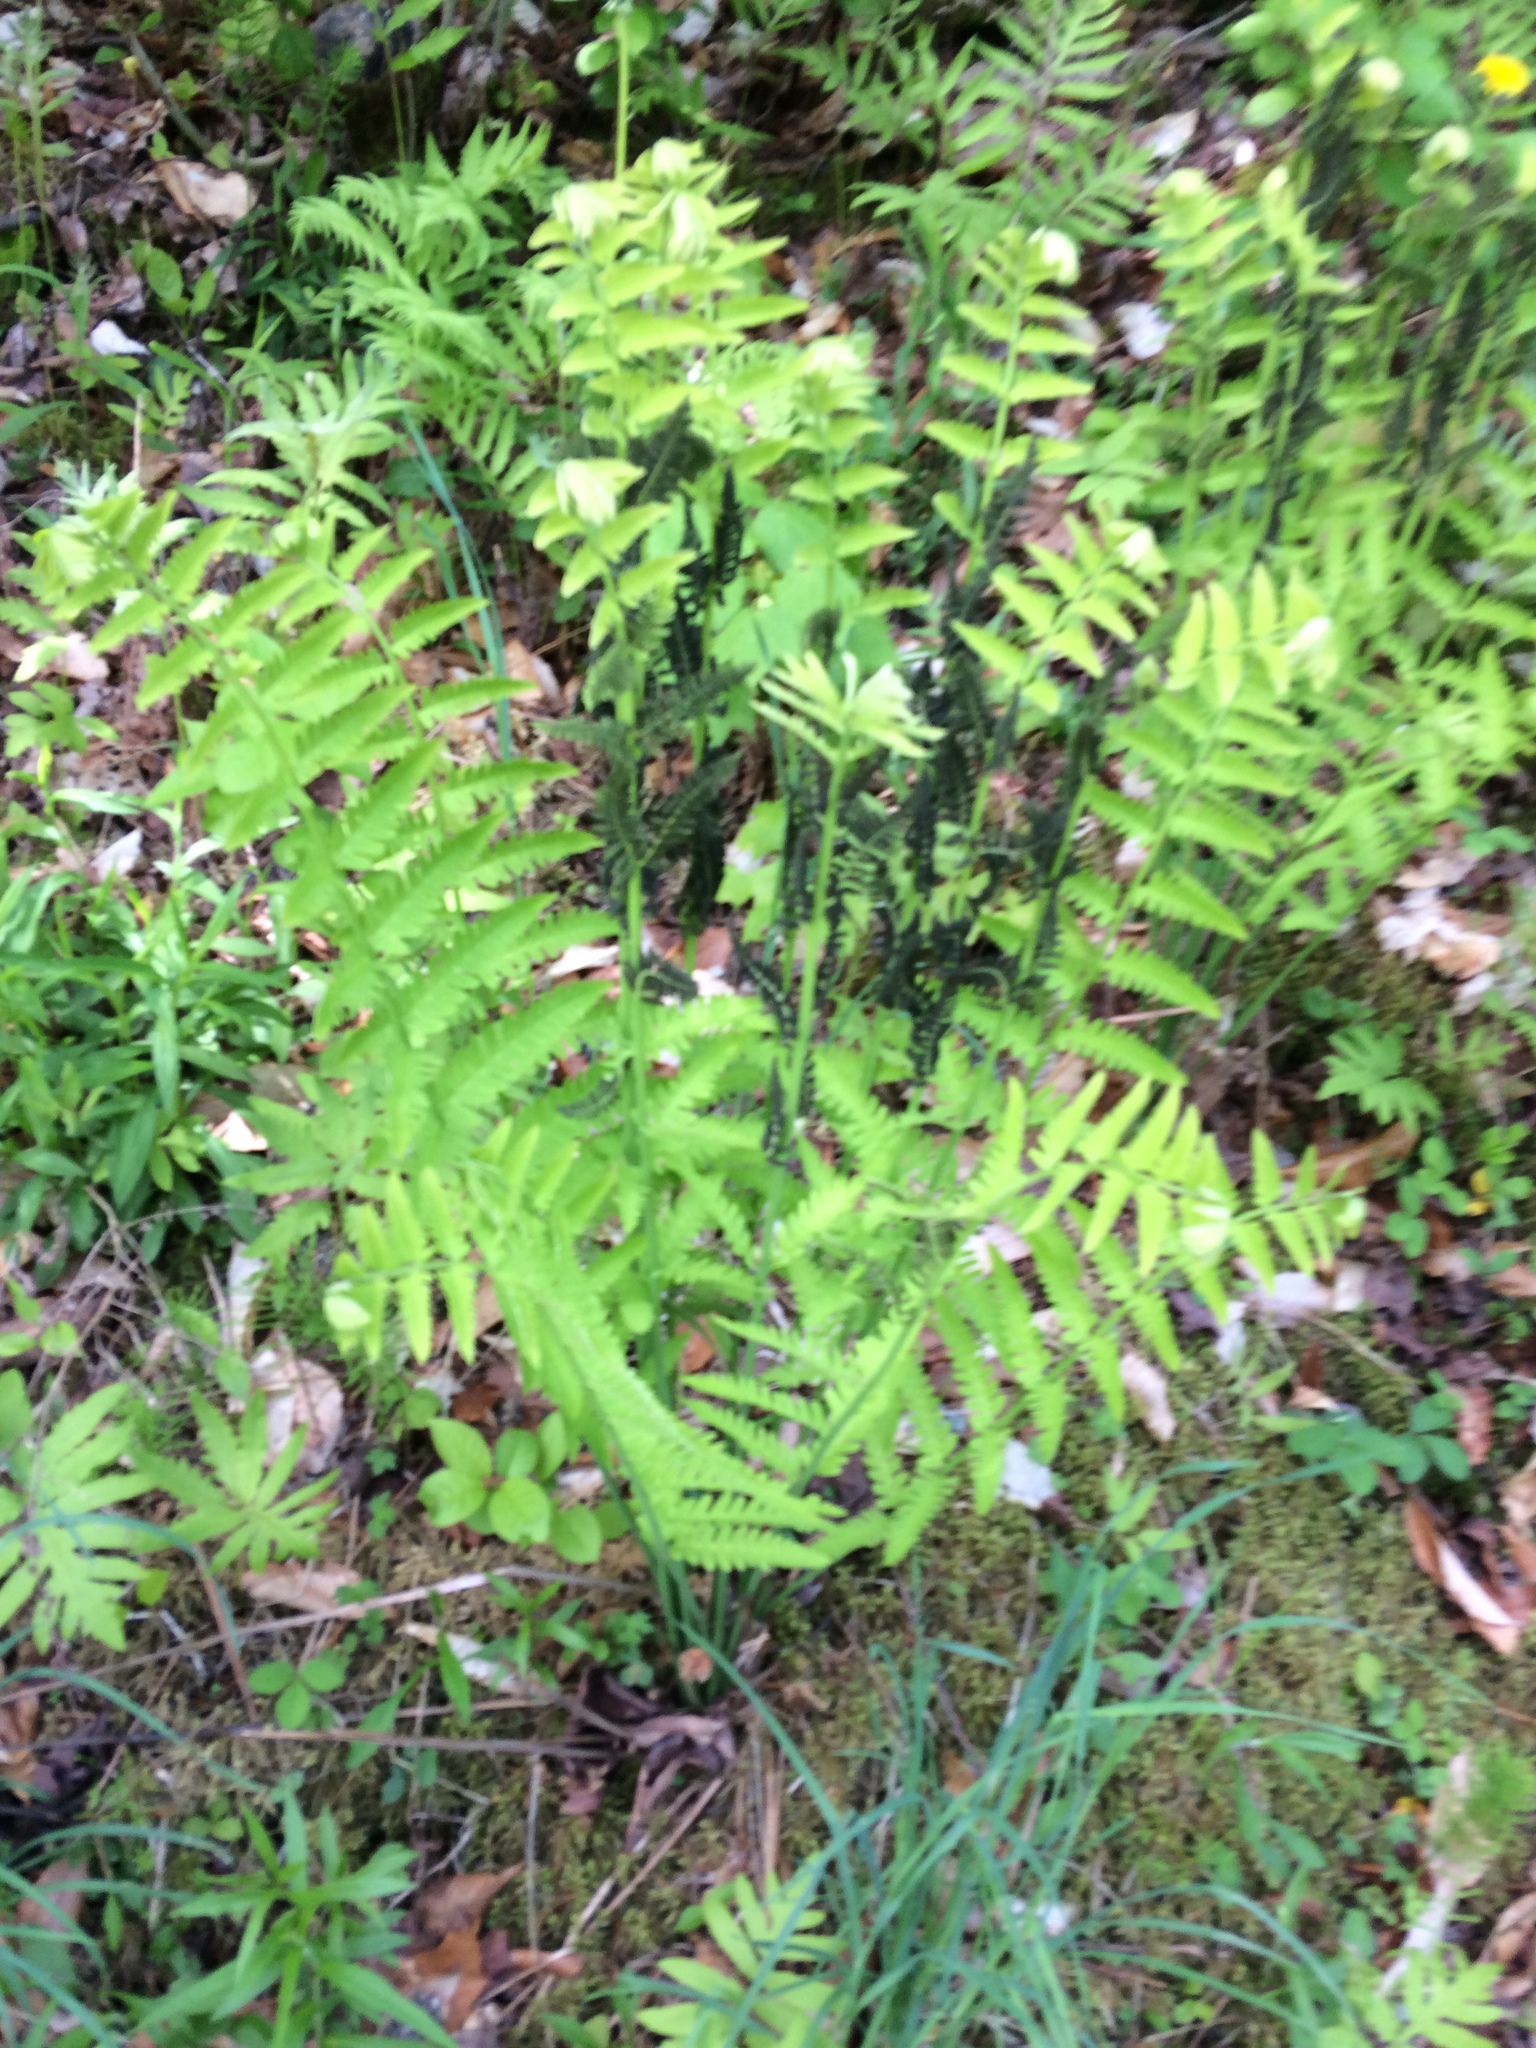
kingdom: Plantae
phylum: Tracheophyta
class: Polypodiopsida
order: Osmundales
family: Osmundaceae
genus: Claytosmunda
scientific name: Claytosmunda claytoniana
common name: Clayton's fern
